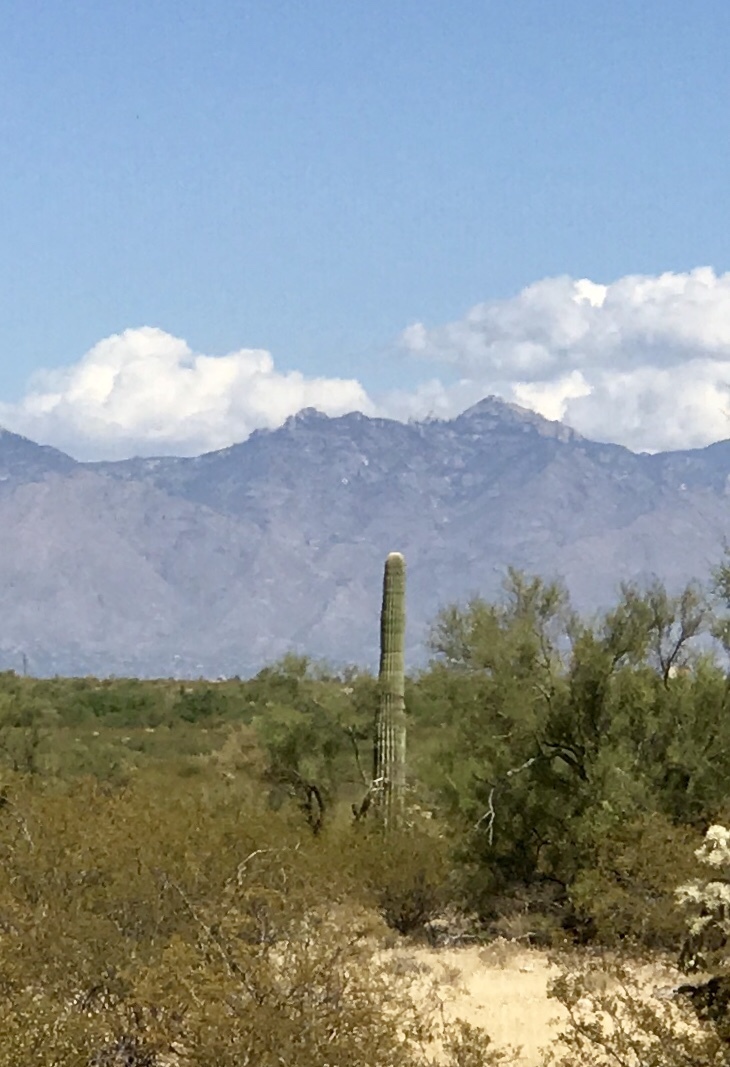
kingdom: Plantae
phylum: Tracheophyta
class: Magnoliopsida
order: Caryophyllales
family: Cactaceae
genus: Carnegiea
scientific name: Carnegiea gigantea
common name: Saguaro
